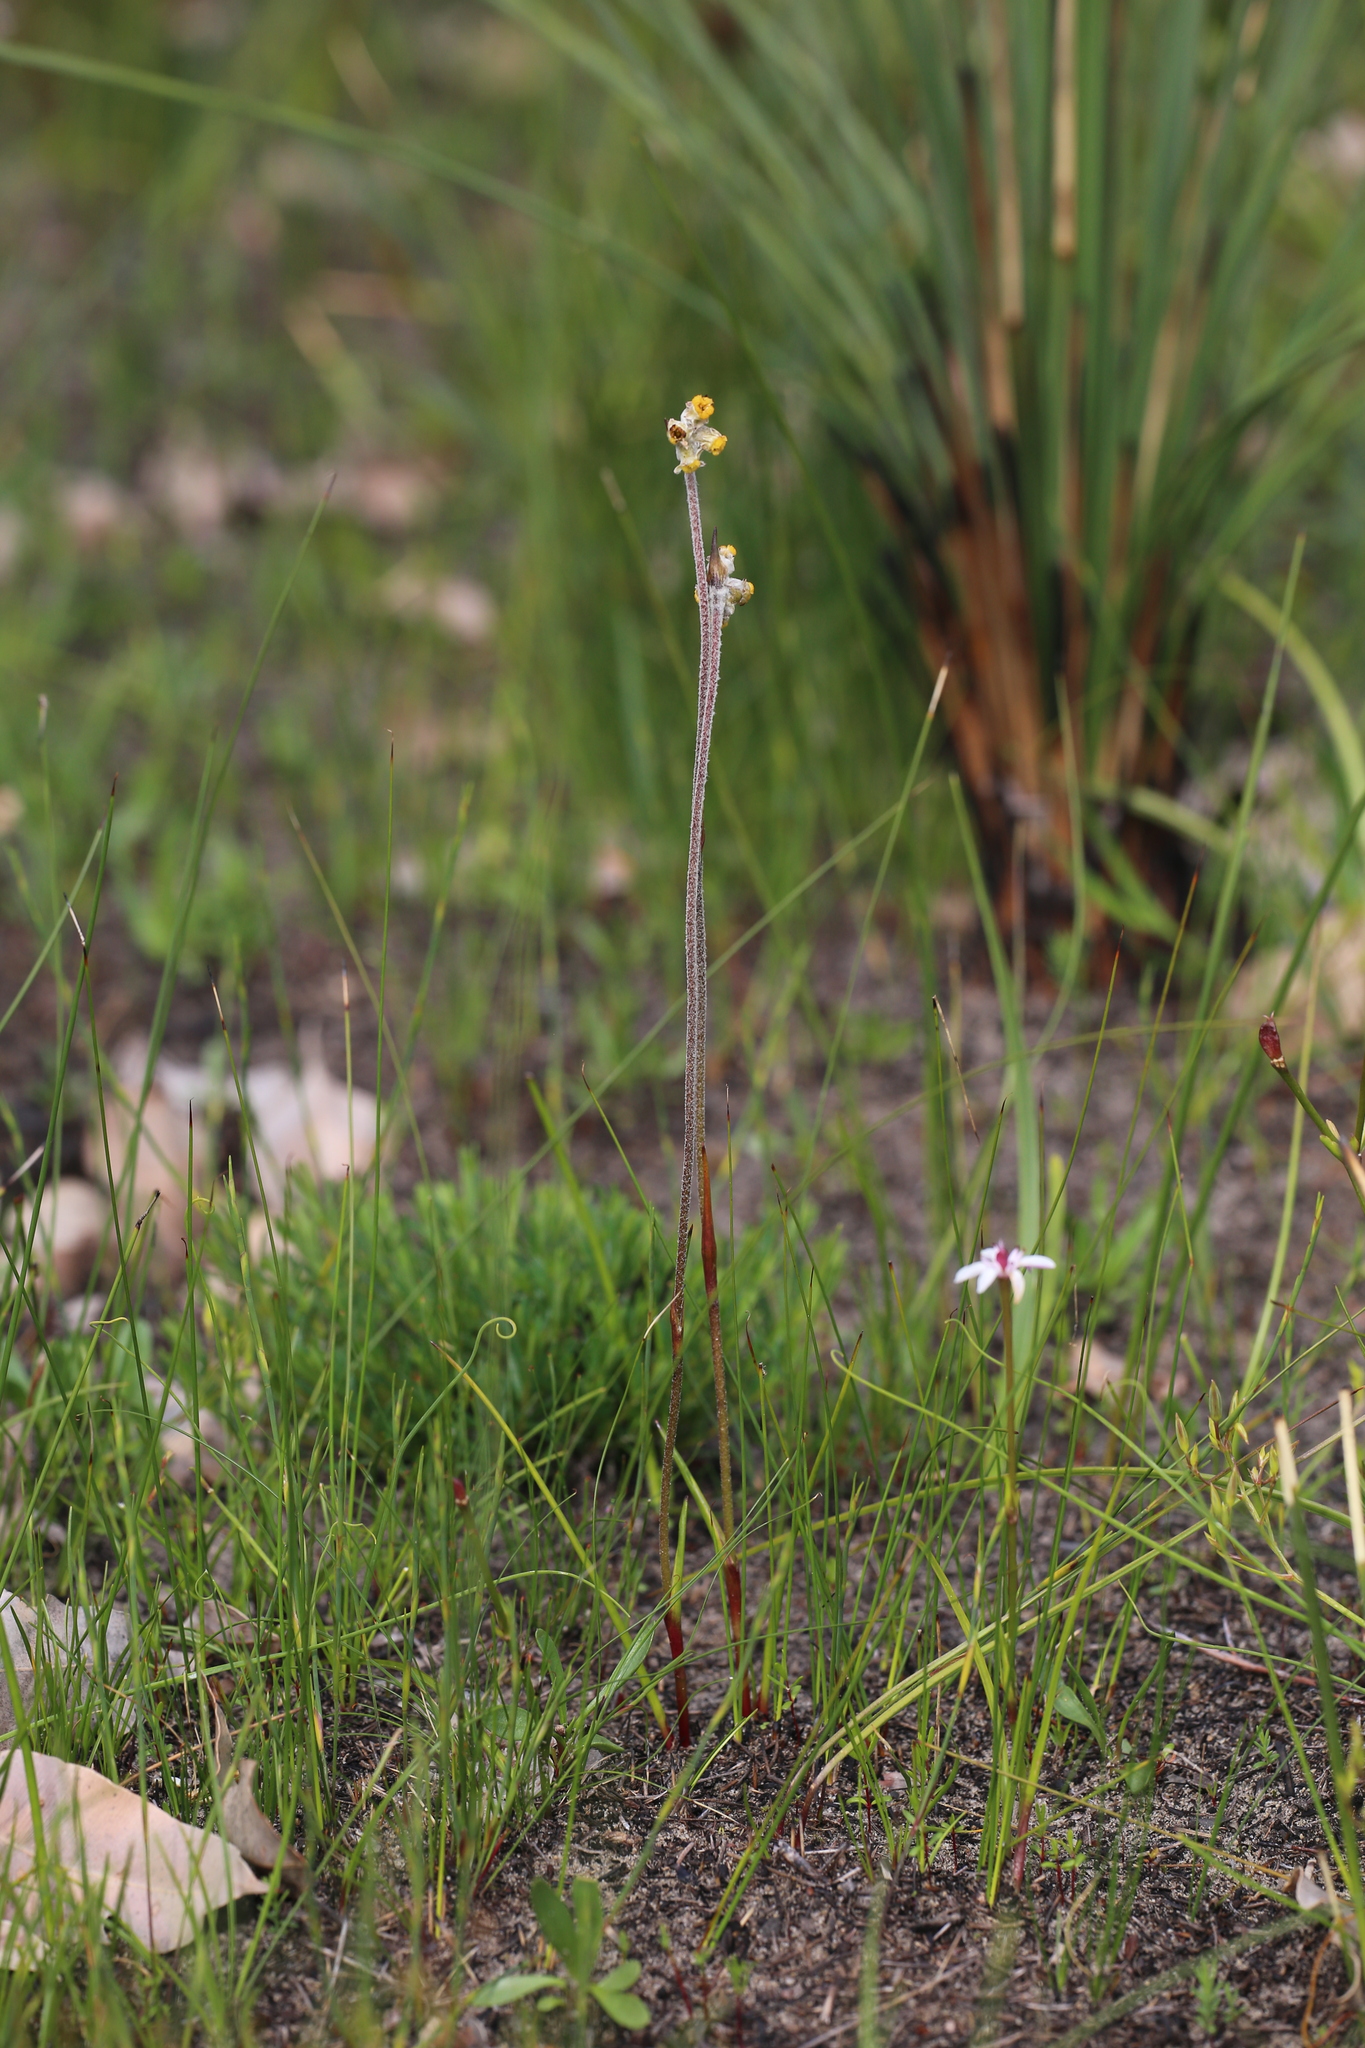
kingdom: Plantae
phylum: Tracheophyta
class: Liliopsida
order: Commelinales
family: Haemodoraceae
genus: Tribonanthes
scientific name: Tribonanthes brachypetala
